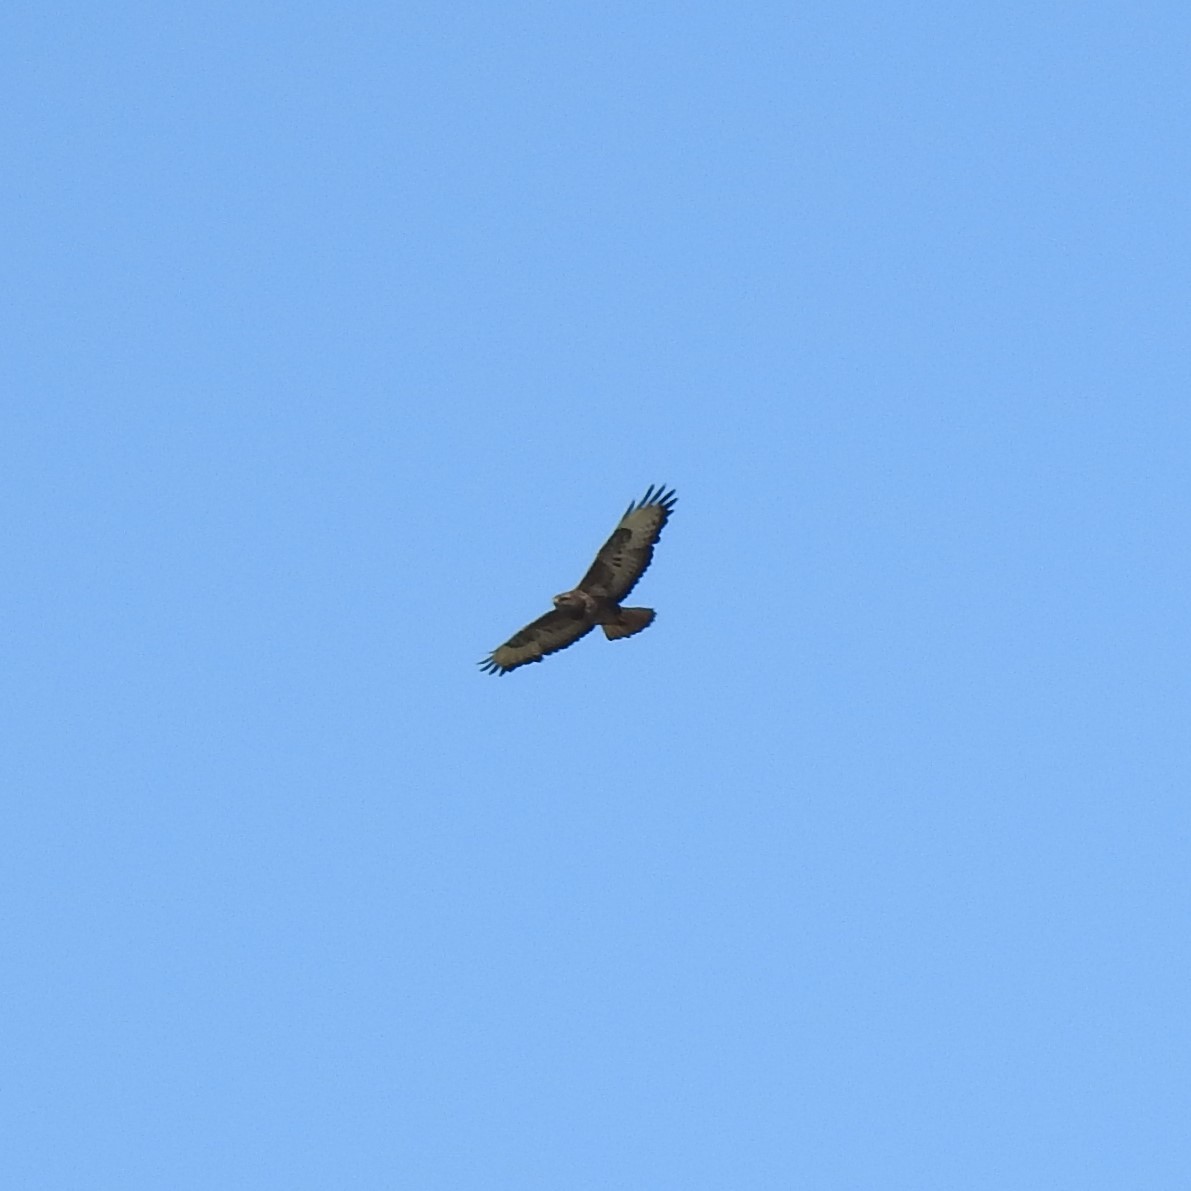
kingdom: Animalia
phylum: Chordata
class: Aves
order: Accipitriformes
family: Accipitridae
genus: Buteo
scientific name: Buteo buteo
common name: Common buzzard
